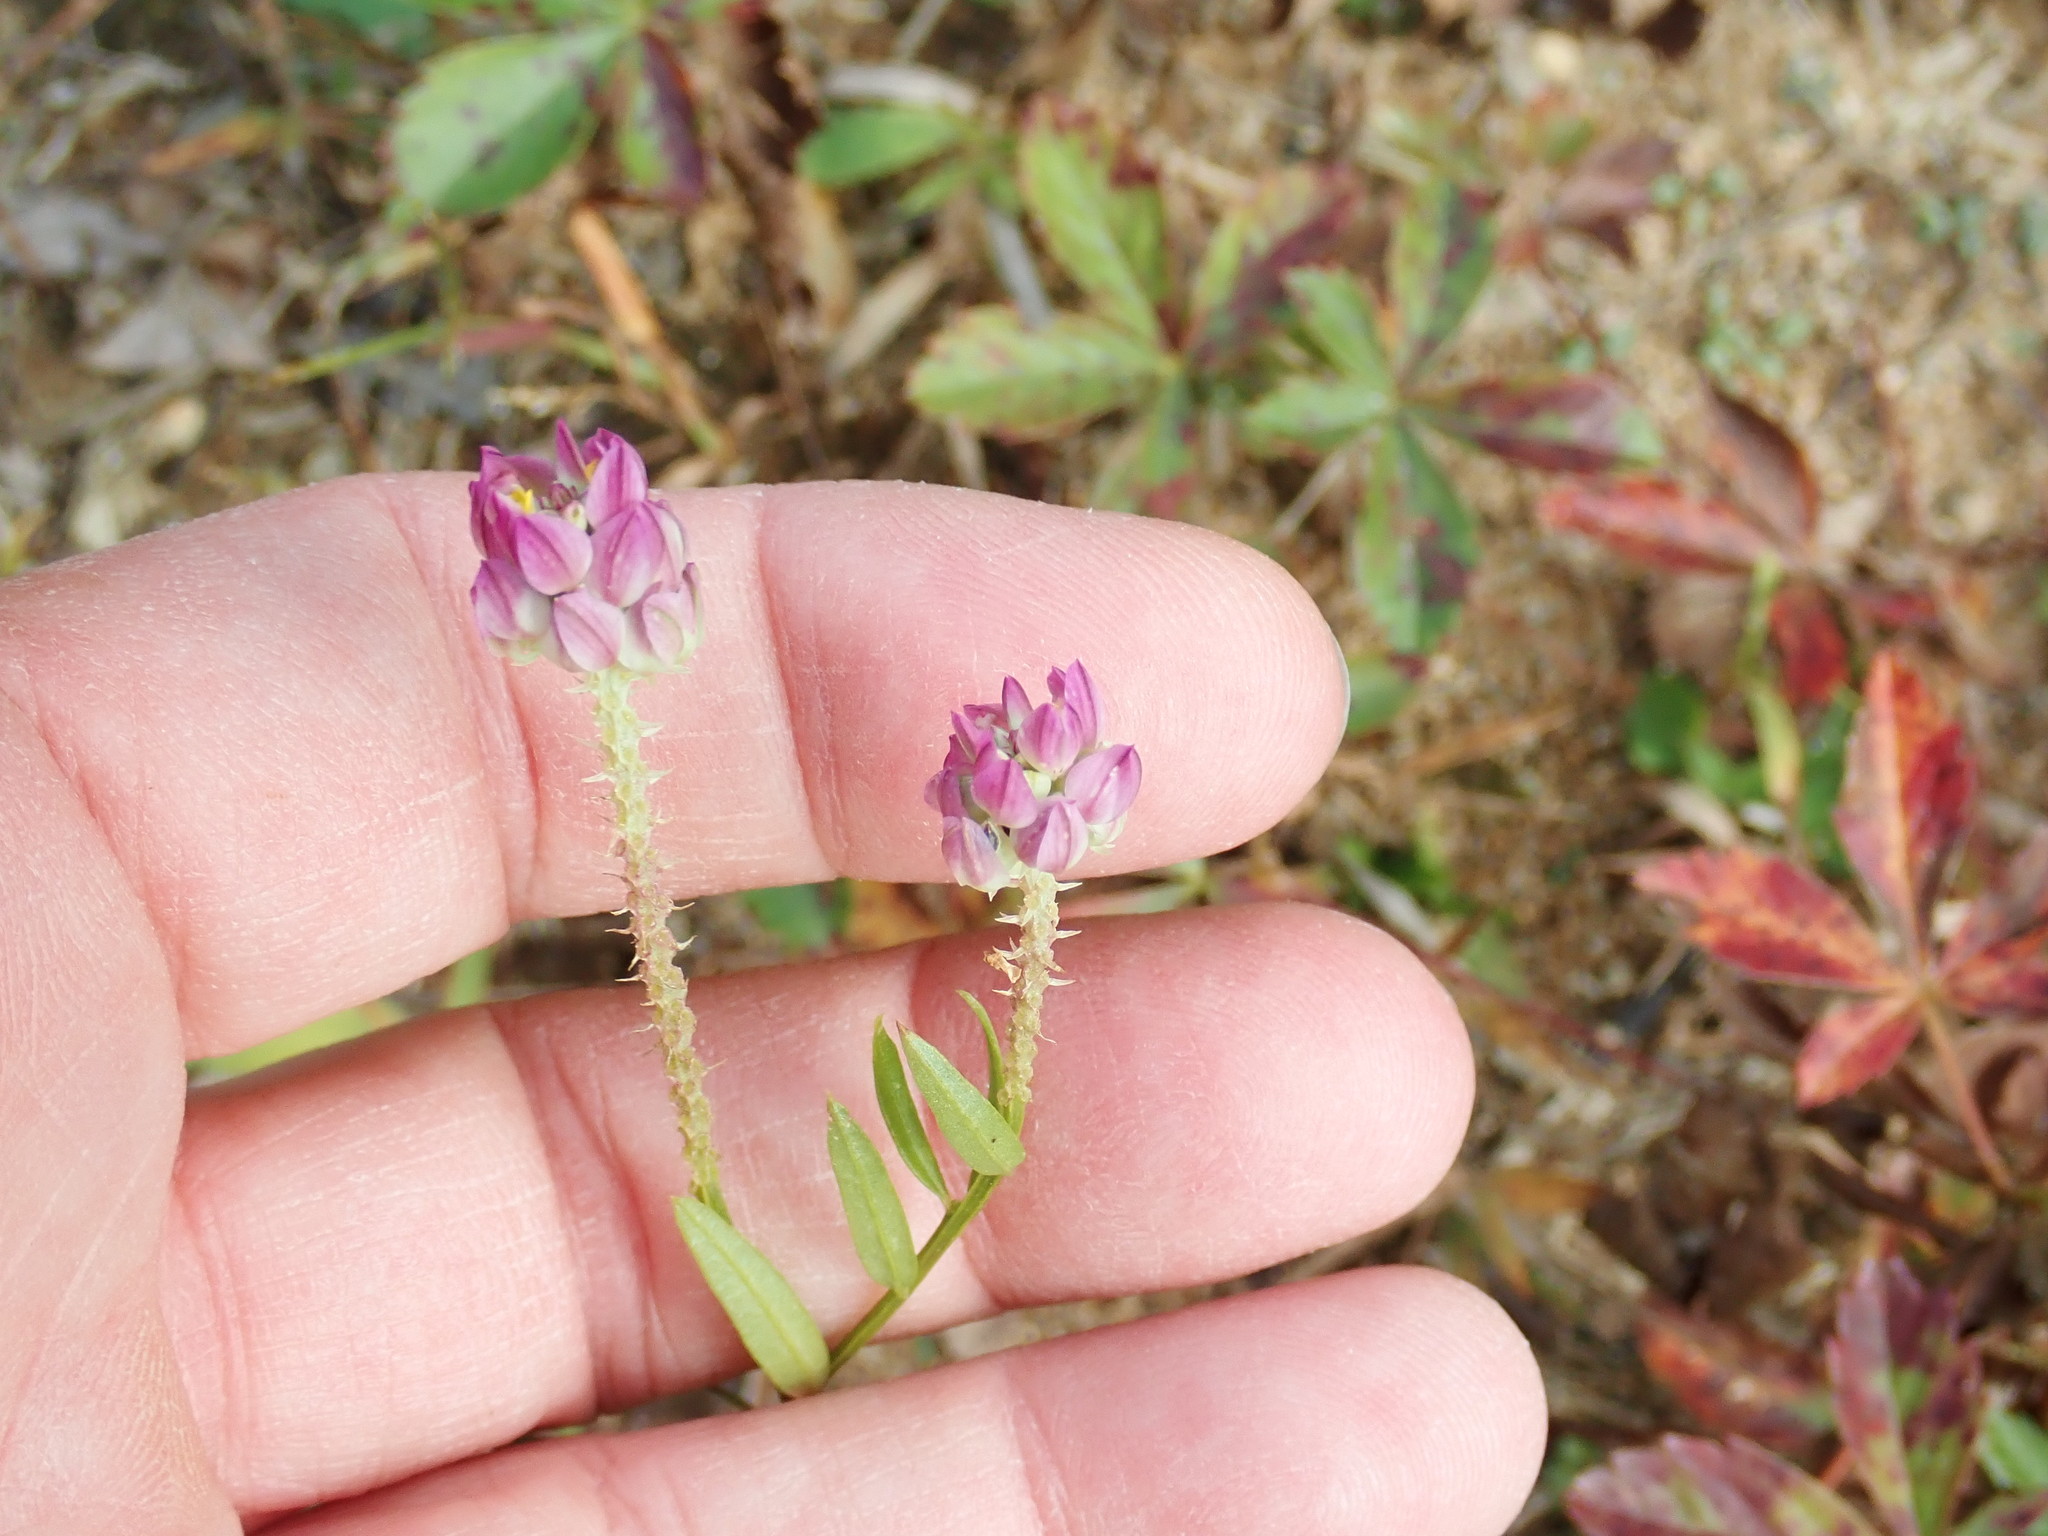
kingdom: Plantae
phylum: Tracheophyta
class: Magnoliopsida
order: Fabales
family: Polygalaceae
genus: Polygala
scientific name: Polygala sanguinea
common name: Blood milkwort
